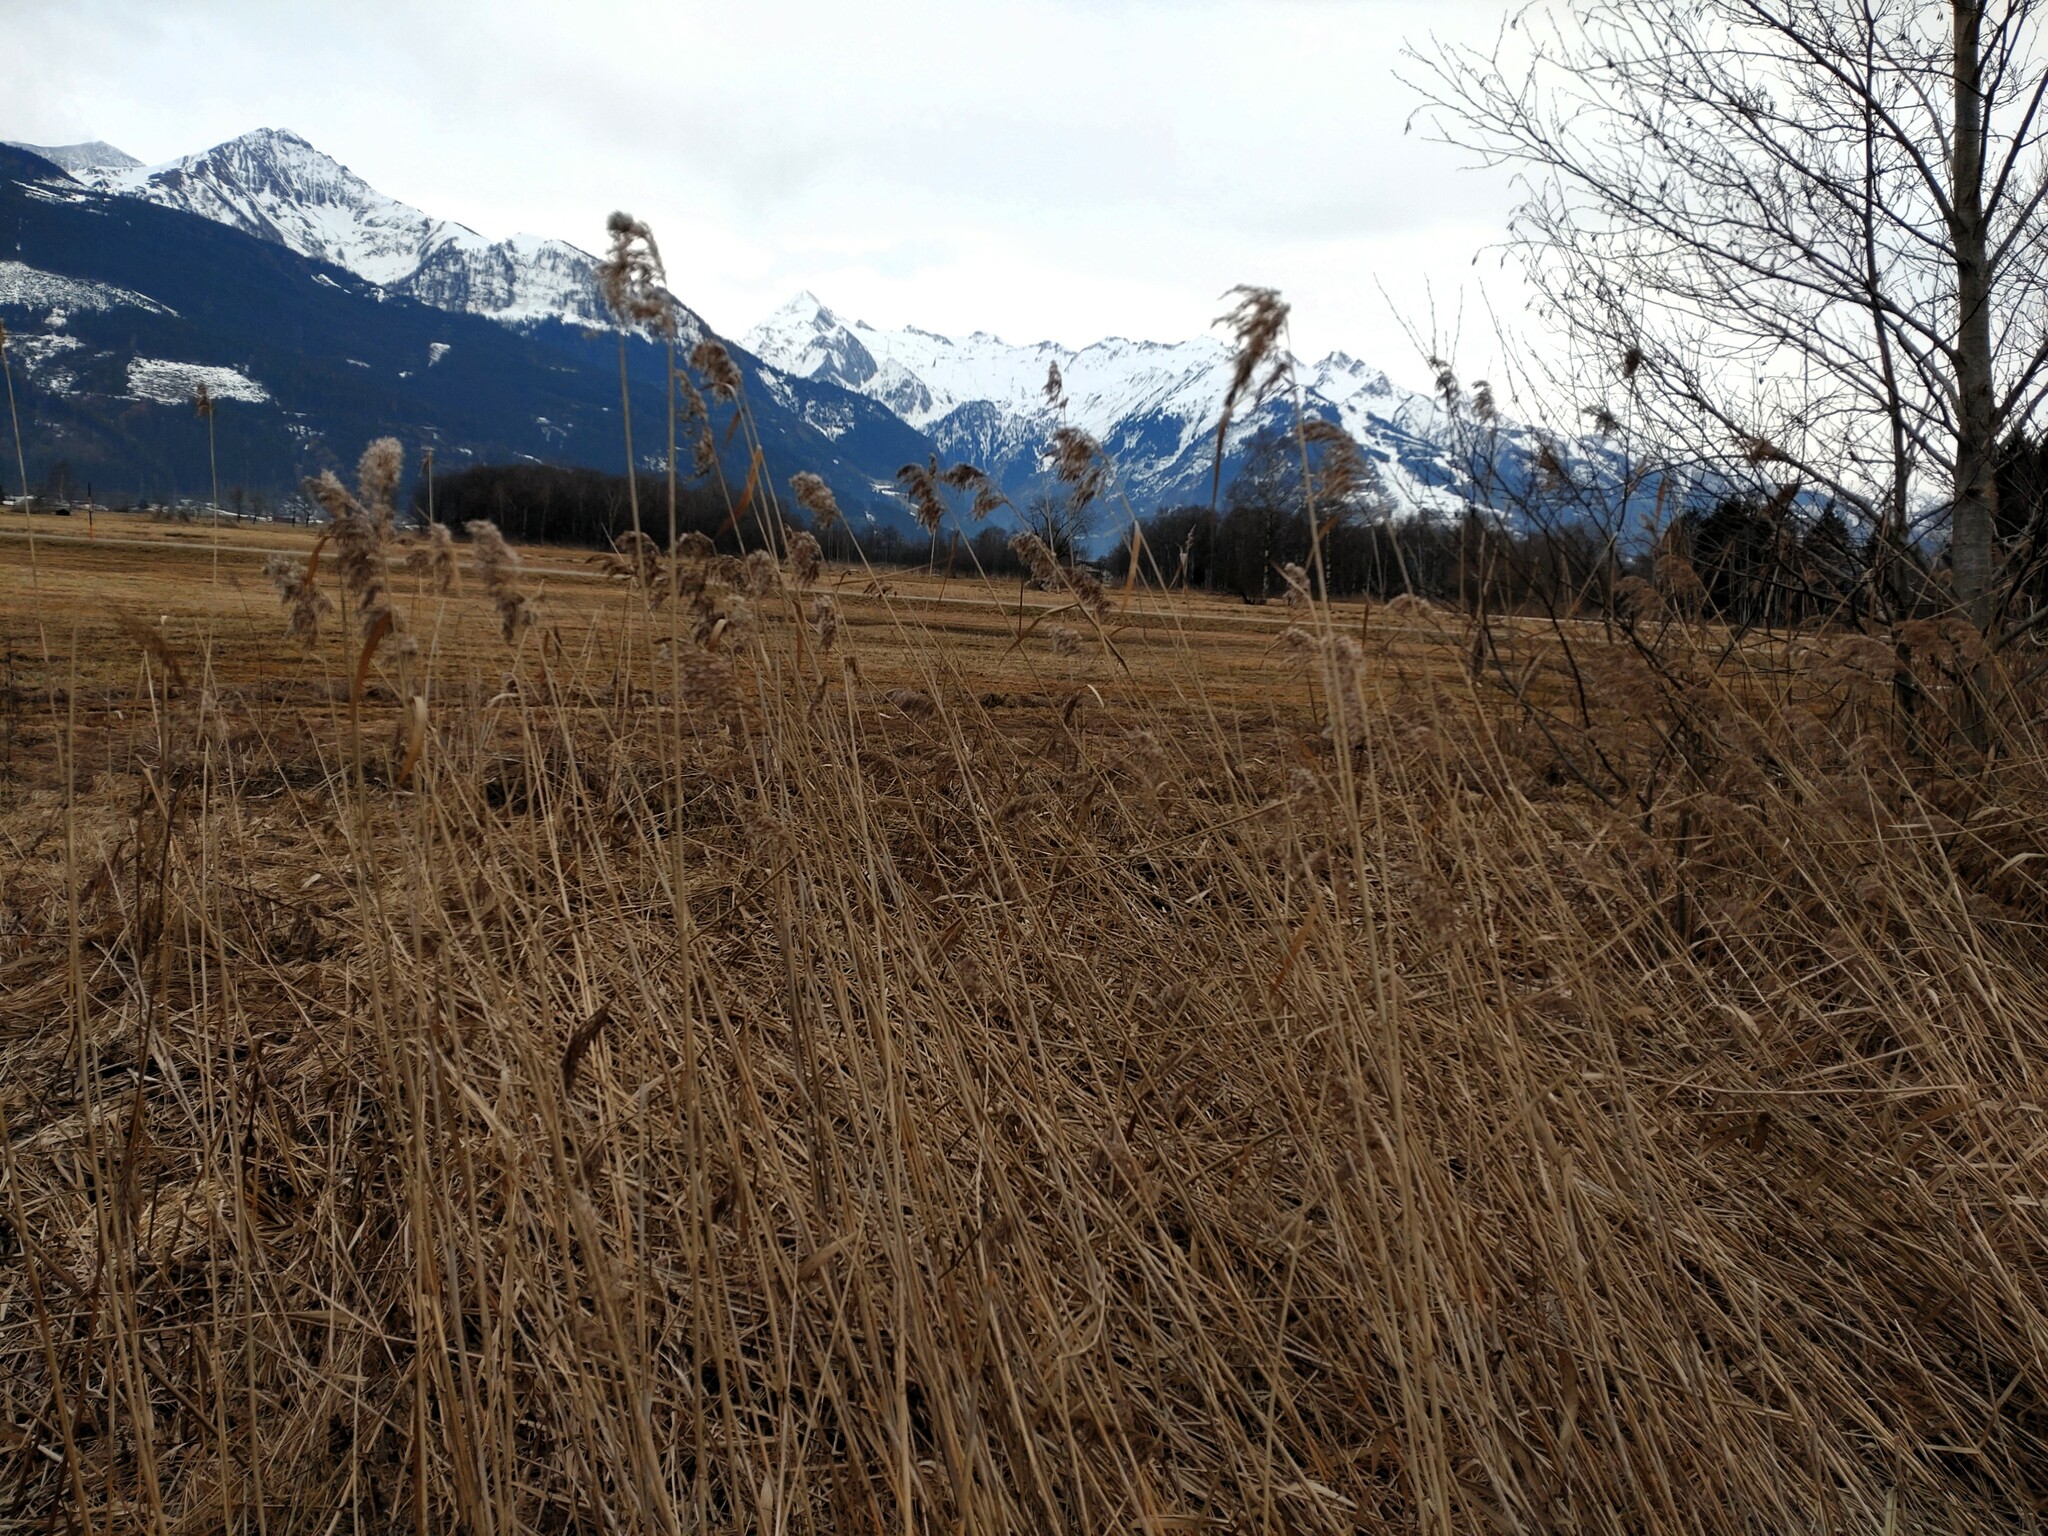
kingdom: Plantae
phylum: Tracheophyta
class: Liliopsida
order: Poales
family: Poaceae
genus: Phragmites
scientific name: Phragmites australis
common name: Common reed
